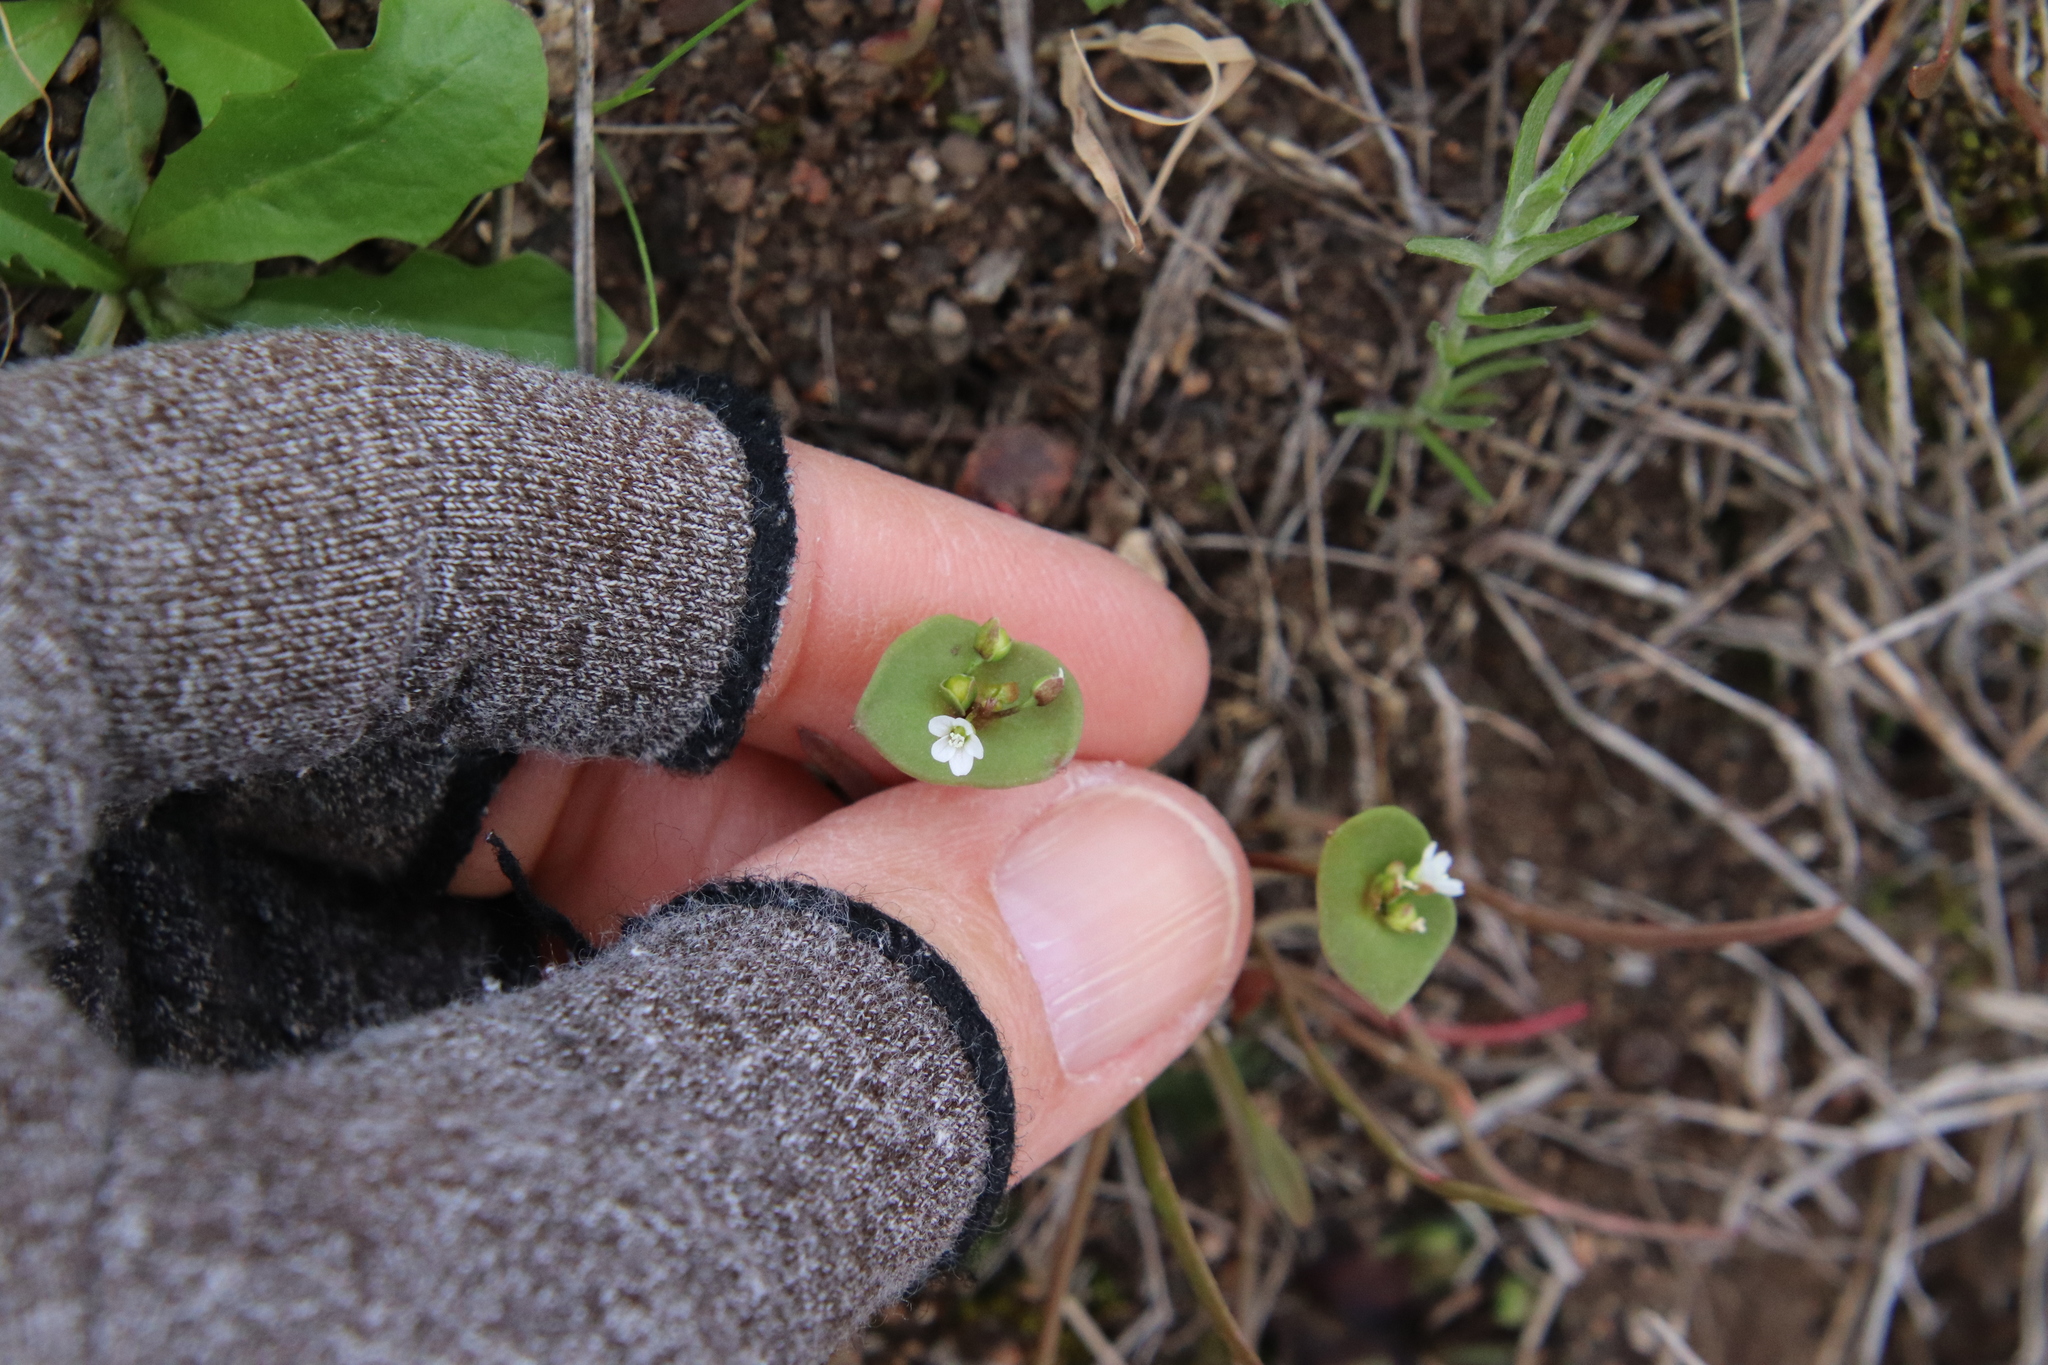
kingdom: Plantae
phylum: Tracheophyta
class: Magnoliopsida
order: Caryophyllales
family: Montiaceae
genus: Claytonia
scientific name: Claytonia parviflora
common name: Indian-lettuce
